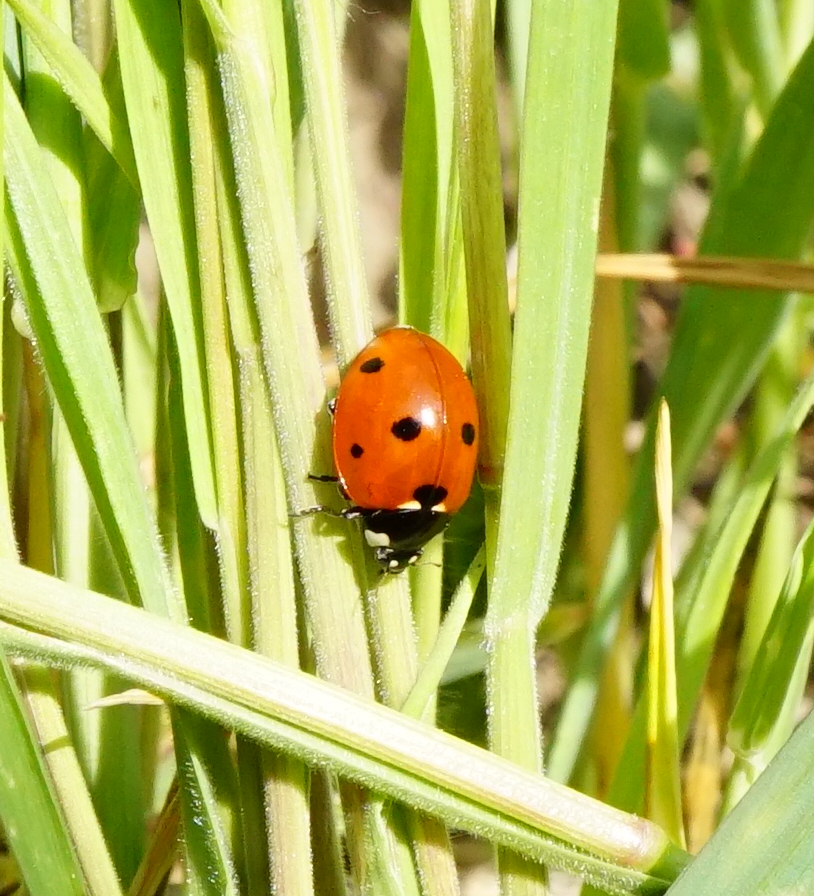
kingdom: Animalia
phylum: Arthropoda
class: Insecta
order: Coleoptera
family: Coccinellidae
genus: Coccinella
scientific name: Coccinella septempunctata
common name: Sevenspotted lady beetle
